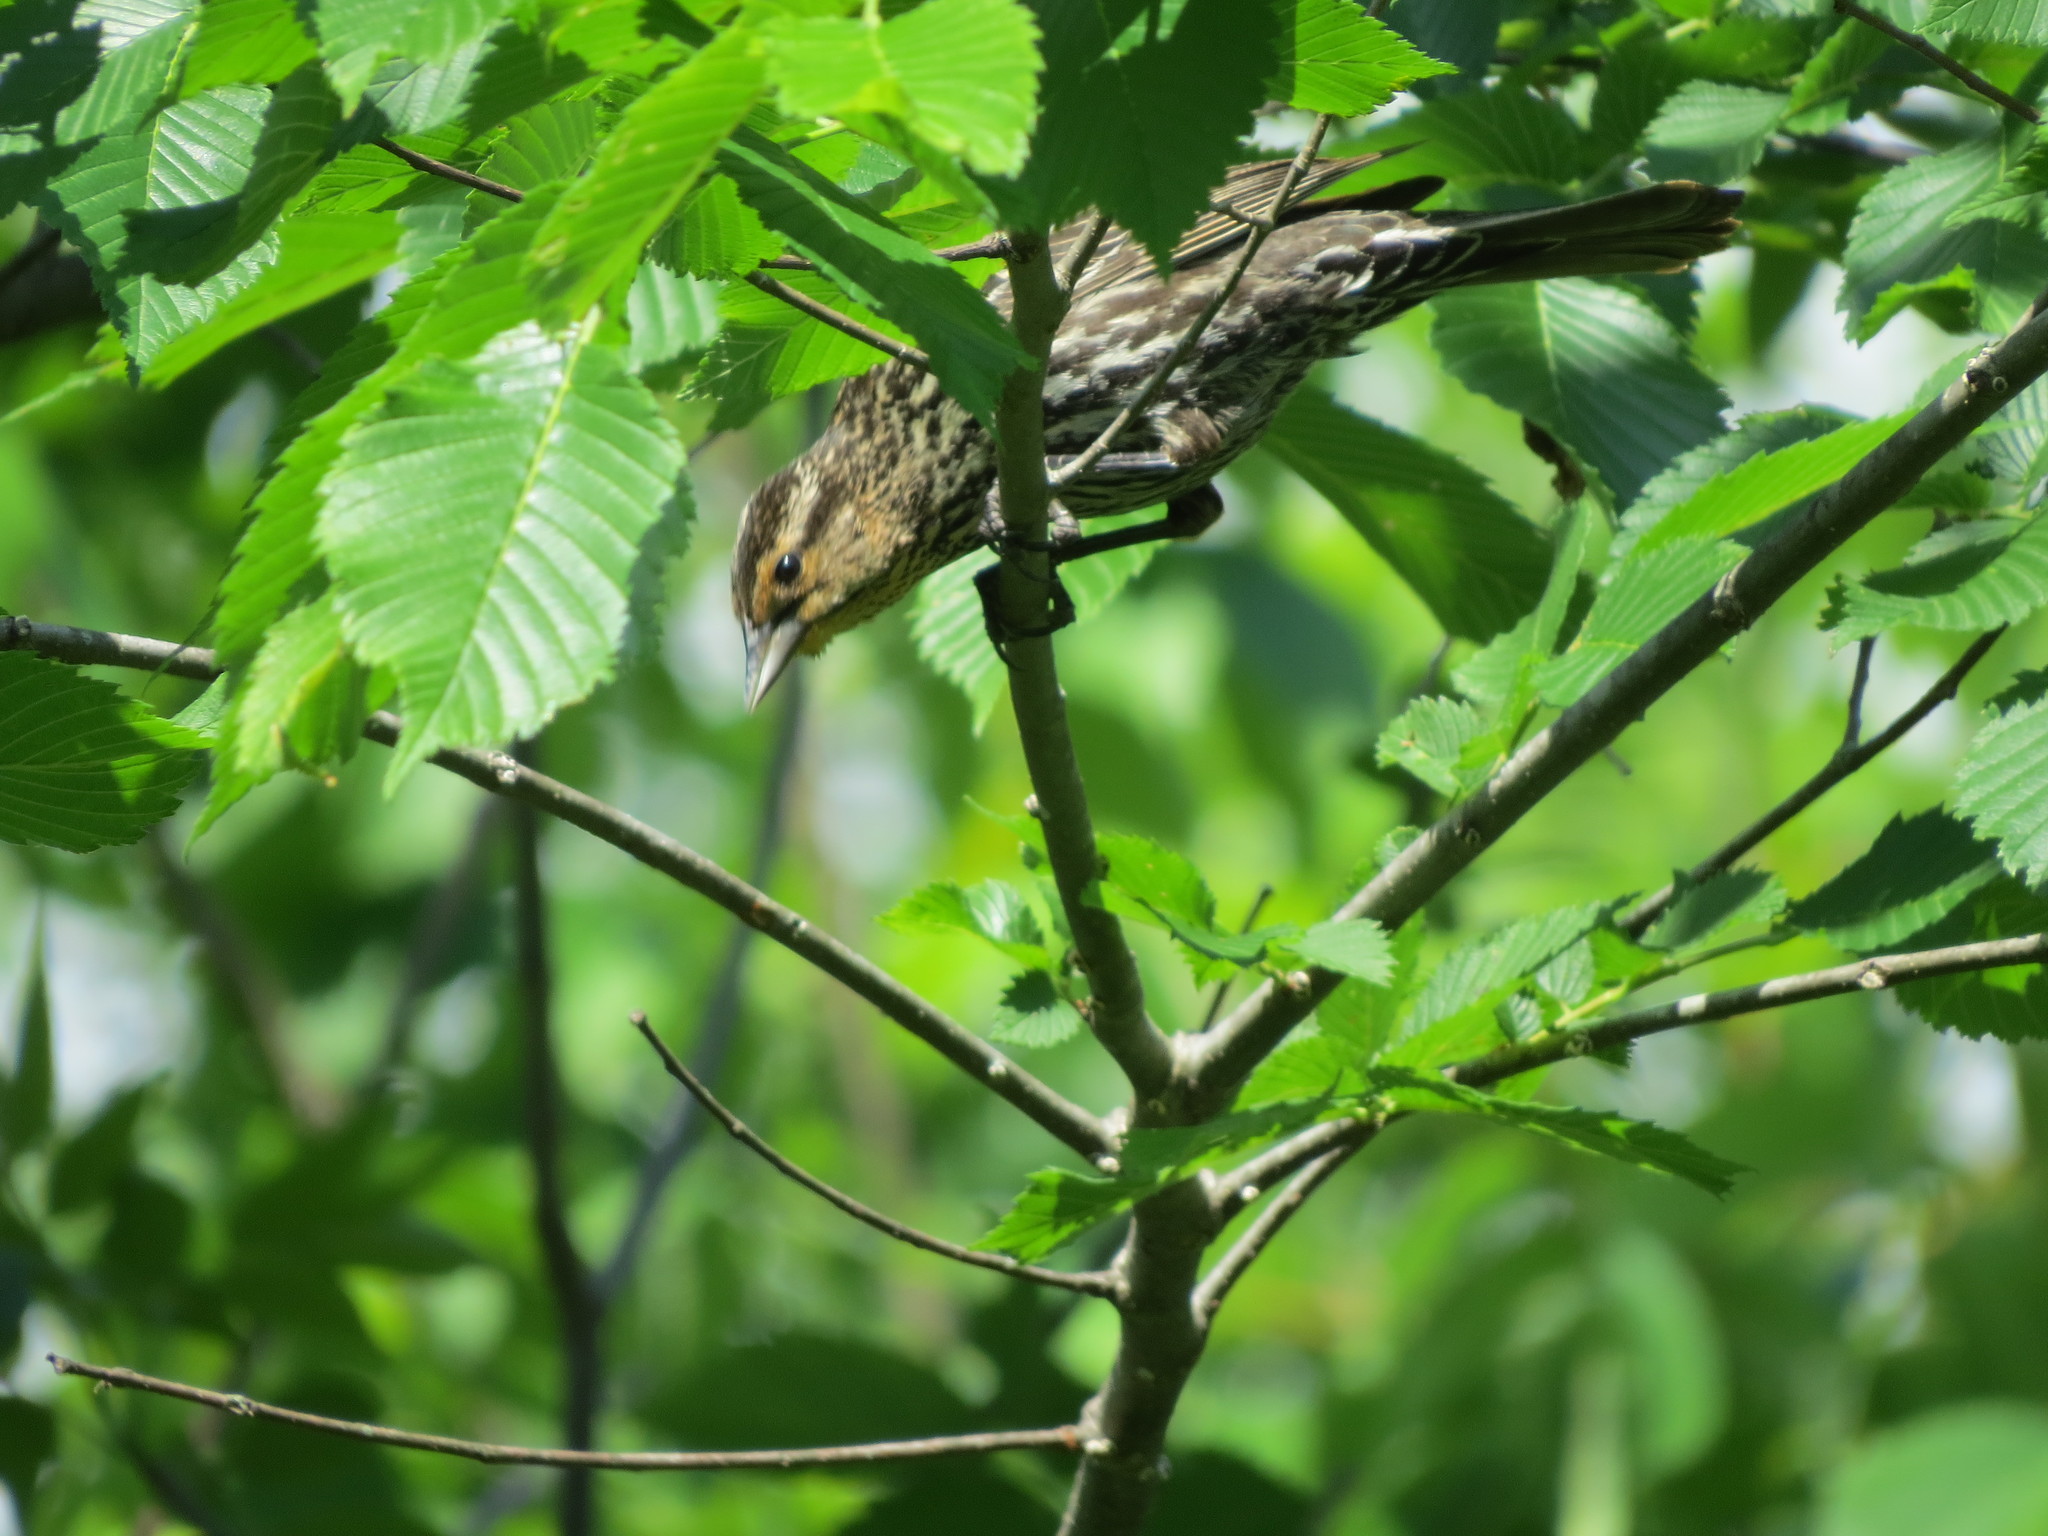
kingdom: Animalia
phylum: Chordata
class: Aves
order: Passeriformes
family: Icteridae
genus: Agelaius
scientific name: Agelaius phoeniceus
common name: Red-winged blackbird
